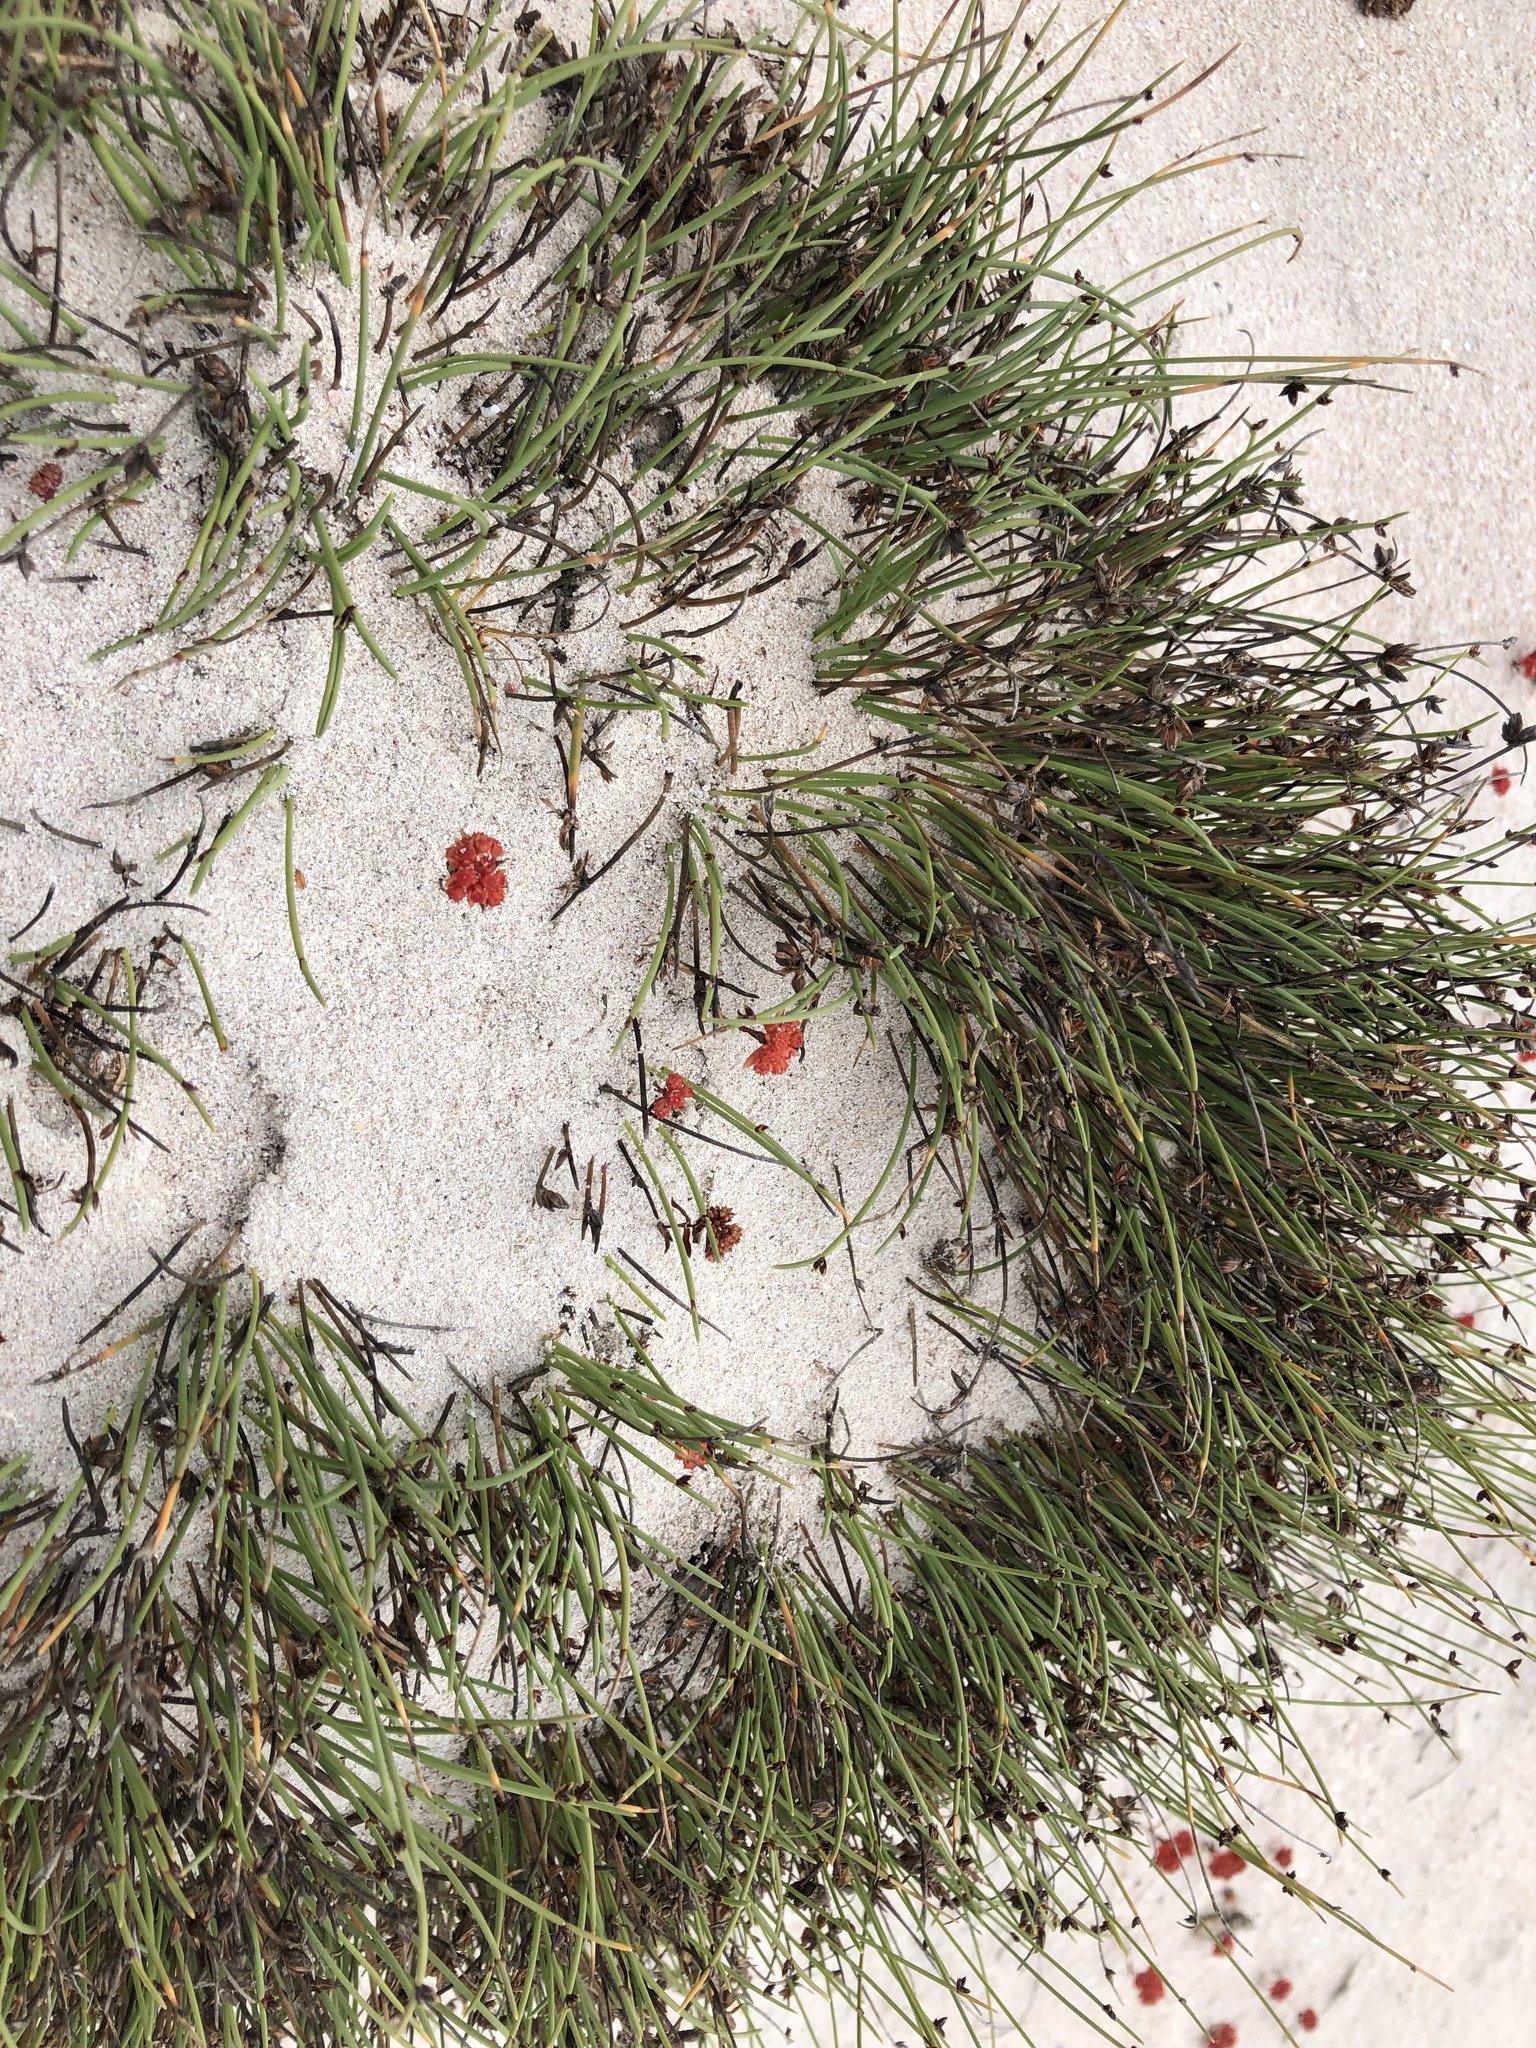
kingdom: Plantae
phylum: Tracheophyta
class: Liliopsida
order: Poales
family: Cyperaceae
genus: Ficinia
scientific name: Ficinia lateralis
